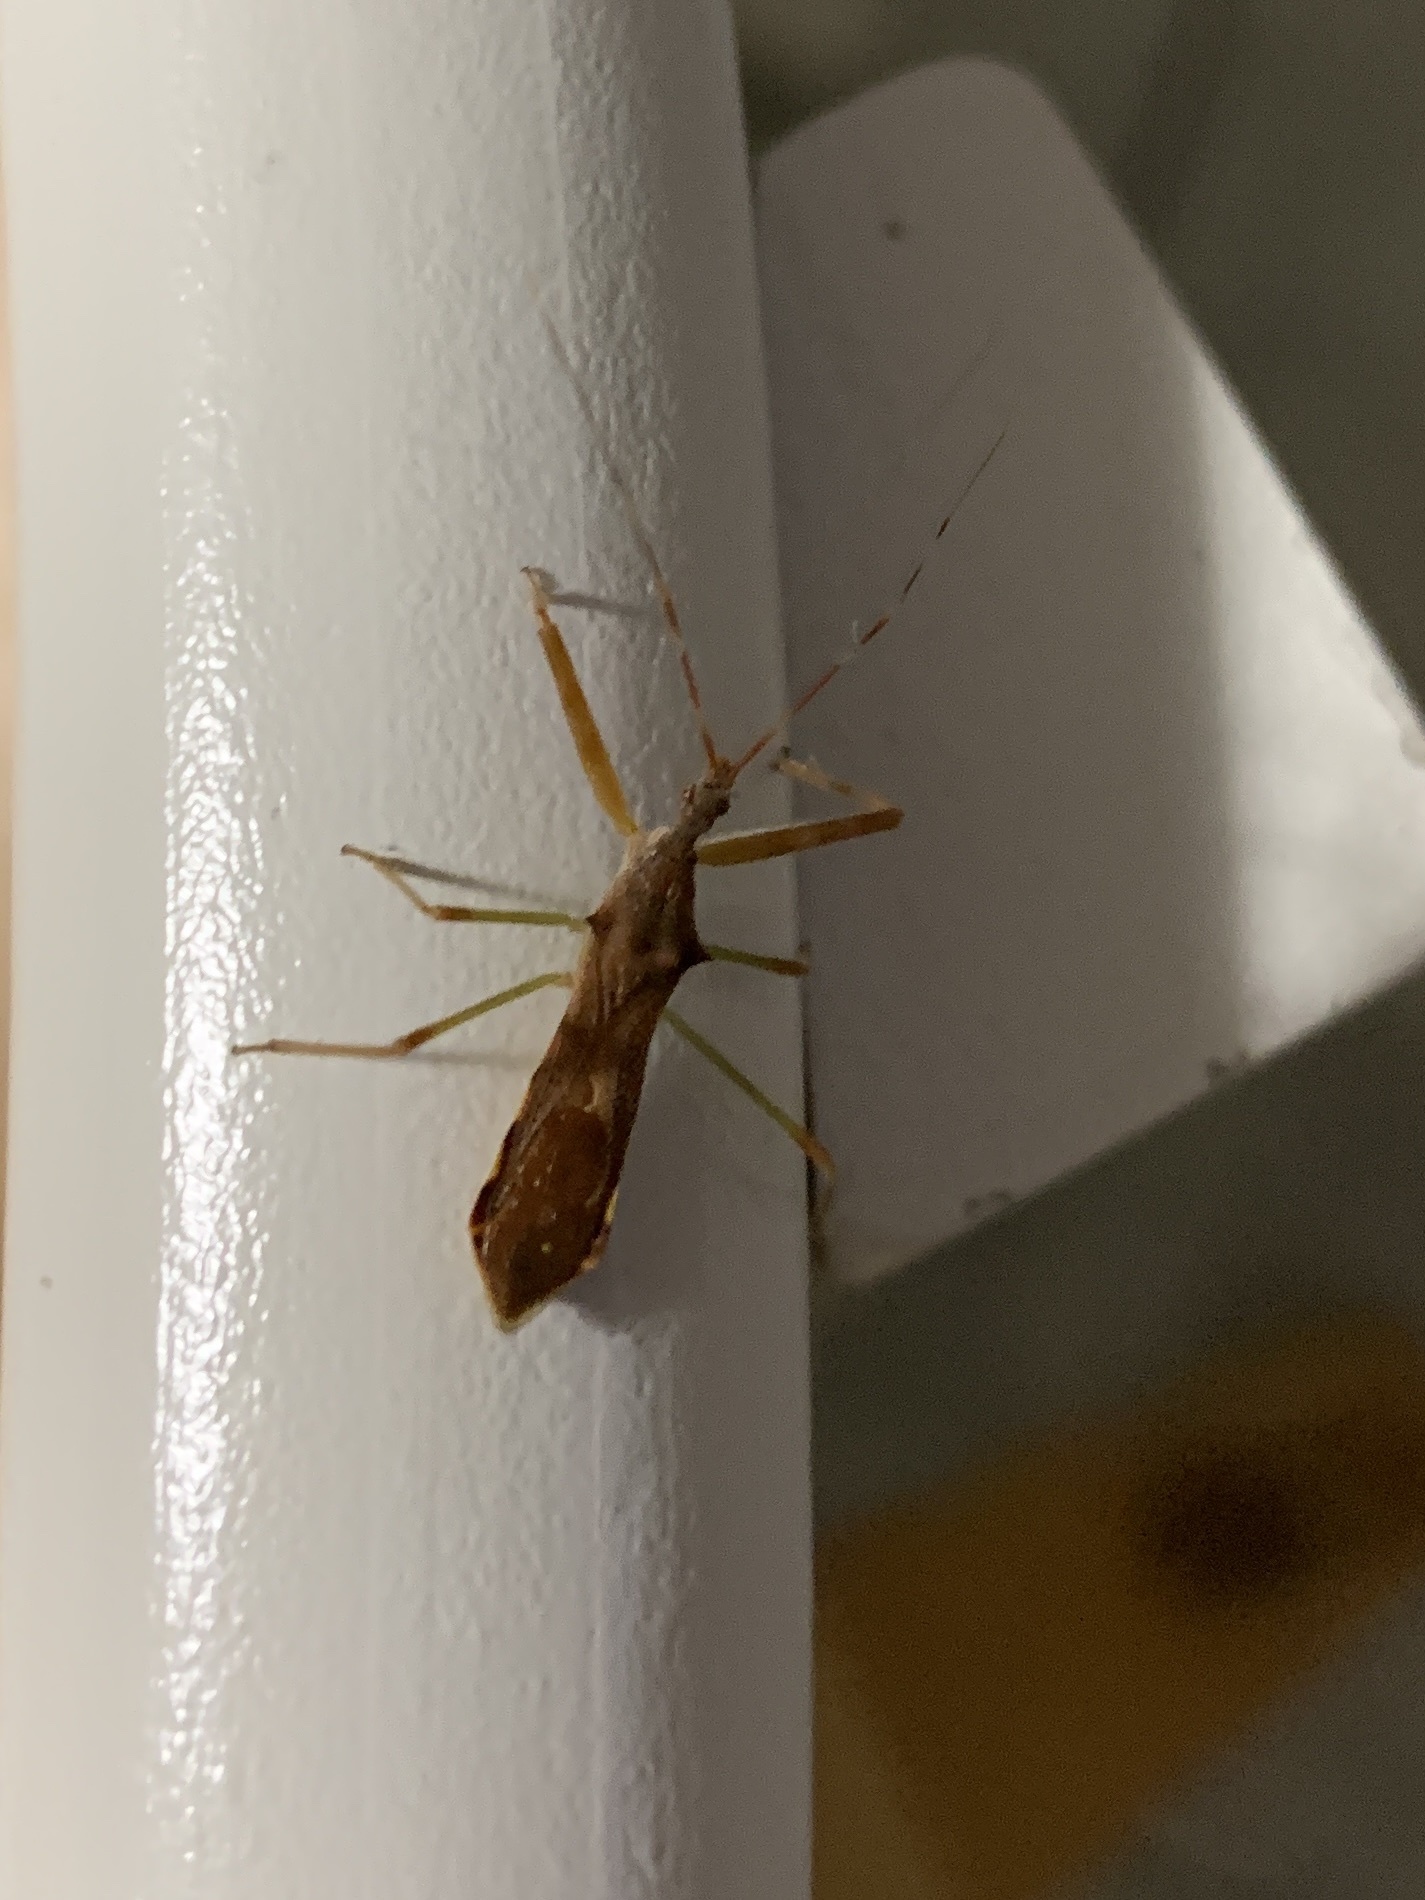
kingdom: Animalia
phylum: Arthropoda
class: Insecta
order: Hemiptera
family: Reduviidae
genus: Nagusta
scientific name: Nagusta goedelii
